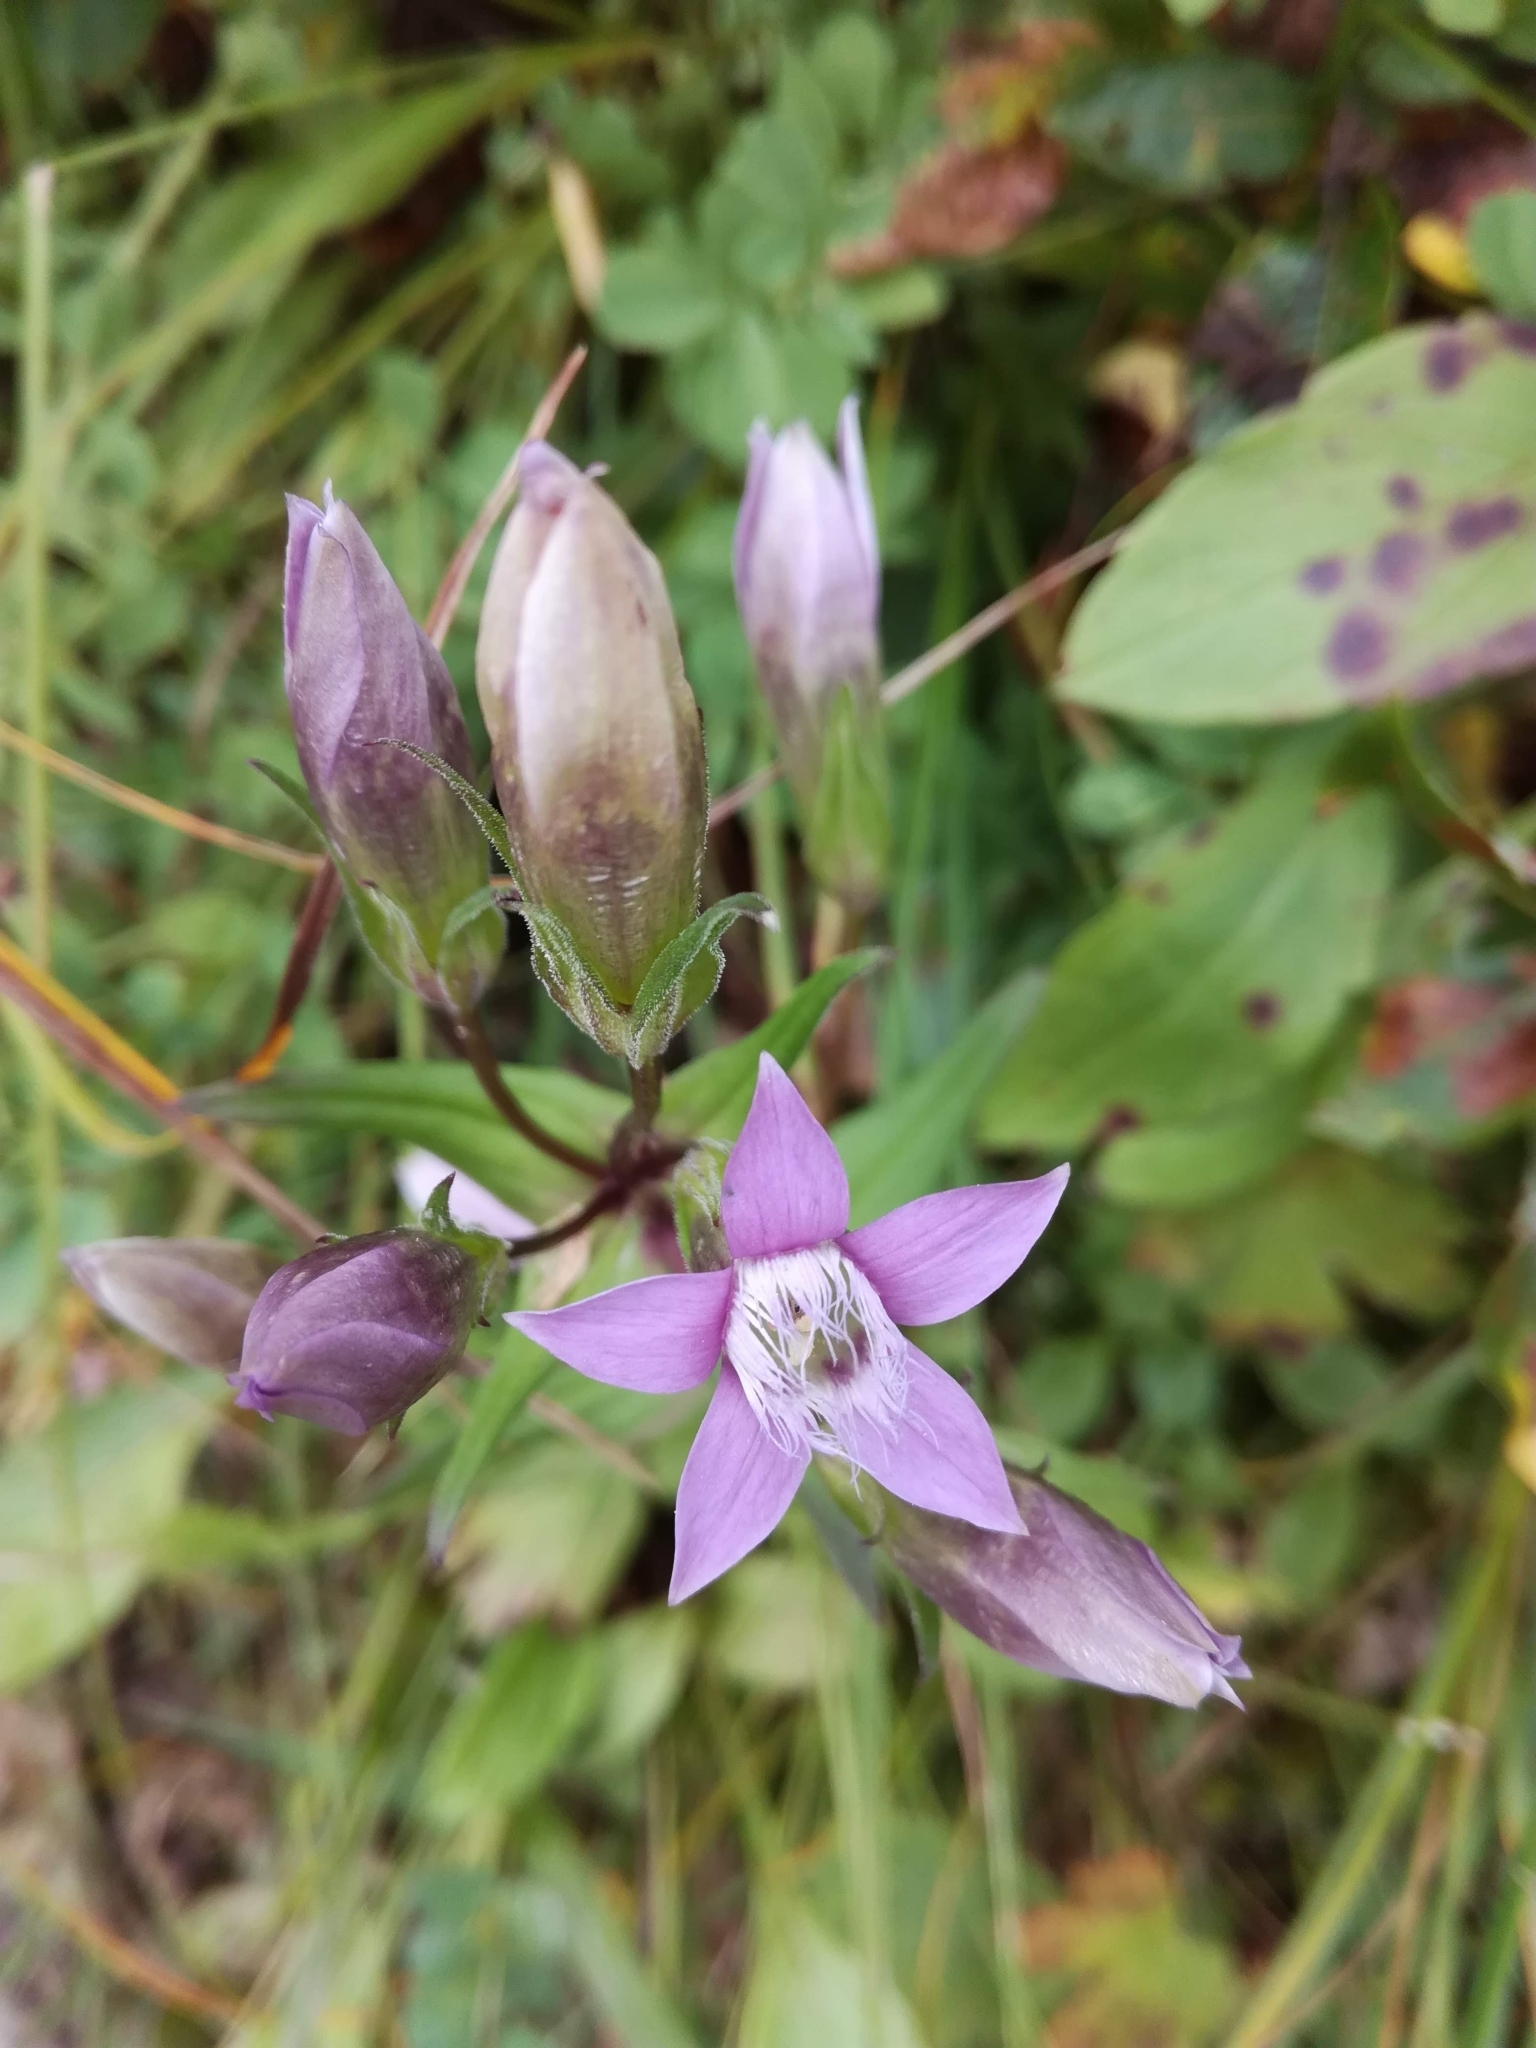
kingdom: Plantae
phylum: Tracheophyta
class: Magnoliopsida
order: Gentianales
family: Gentianaceae
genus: Gentianella
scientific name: Gentianella obtusifolia
